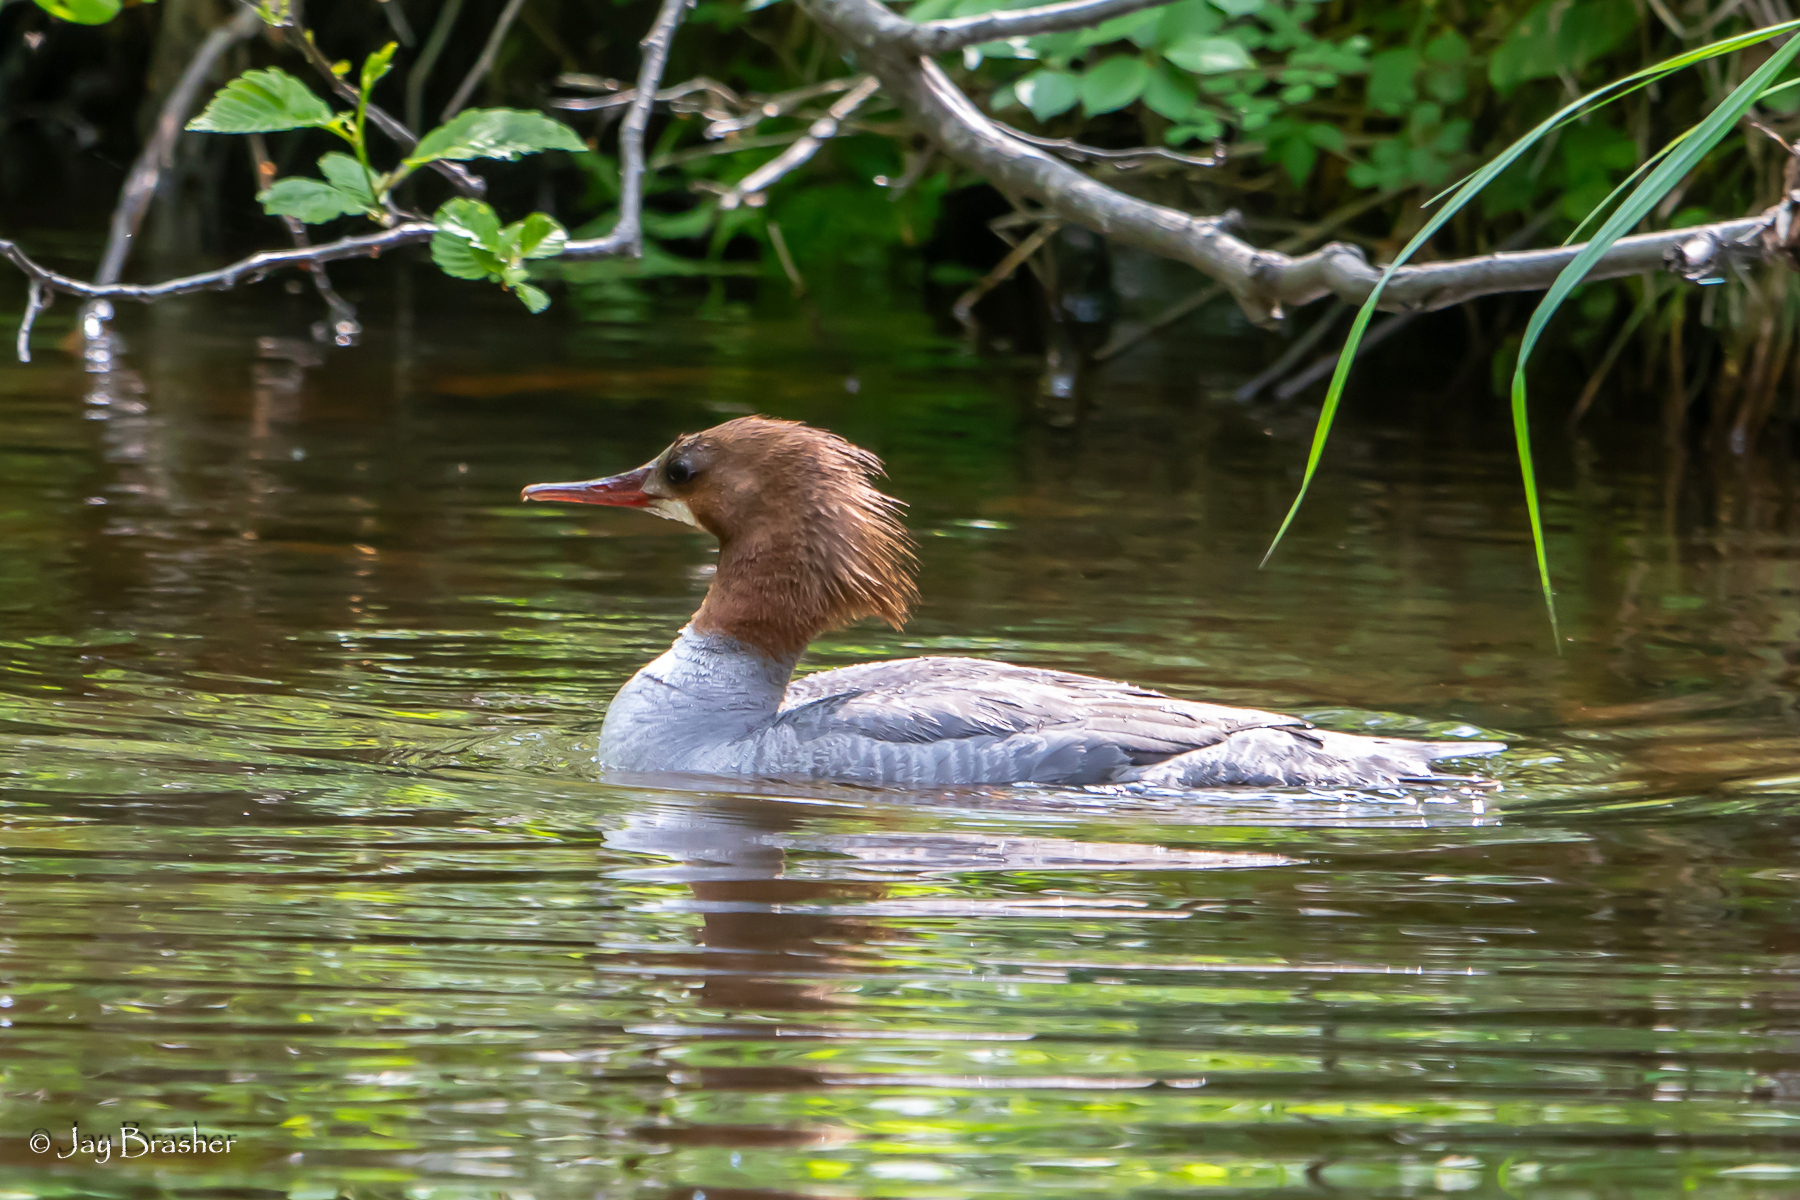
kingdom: Animalia
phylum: Chordata
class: Aves
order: Anseriformes
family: Anatidae
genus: Mergus
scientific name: Mergus merganser
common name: Common merganser
